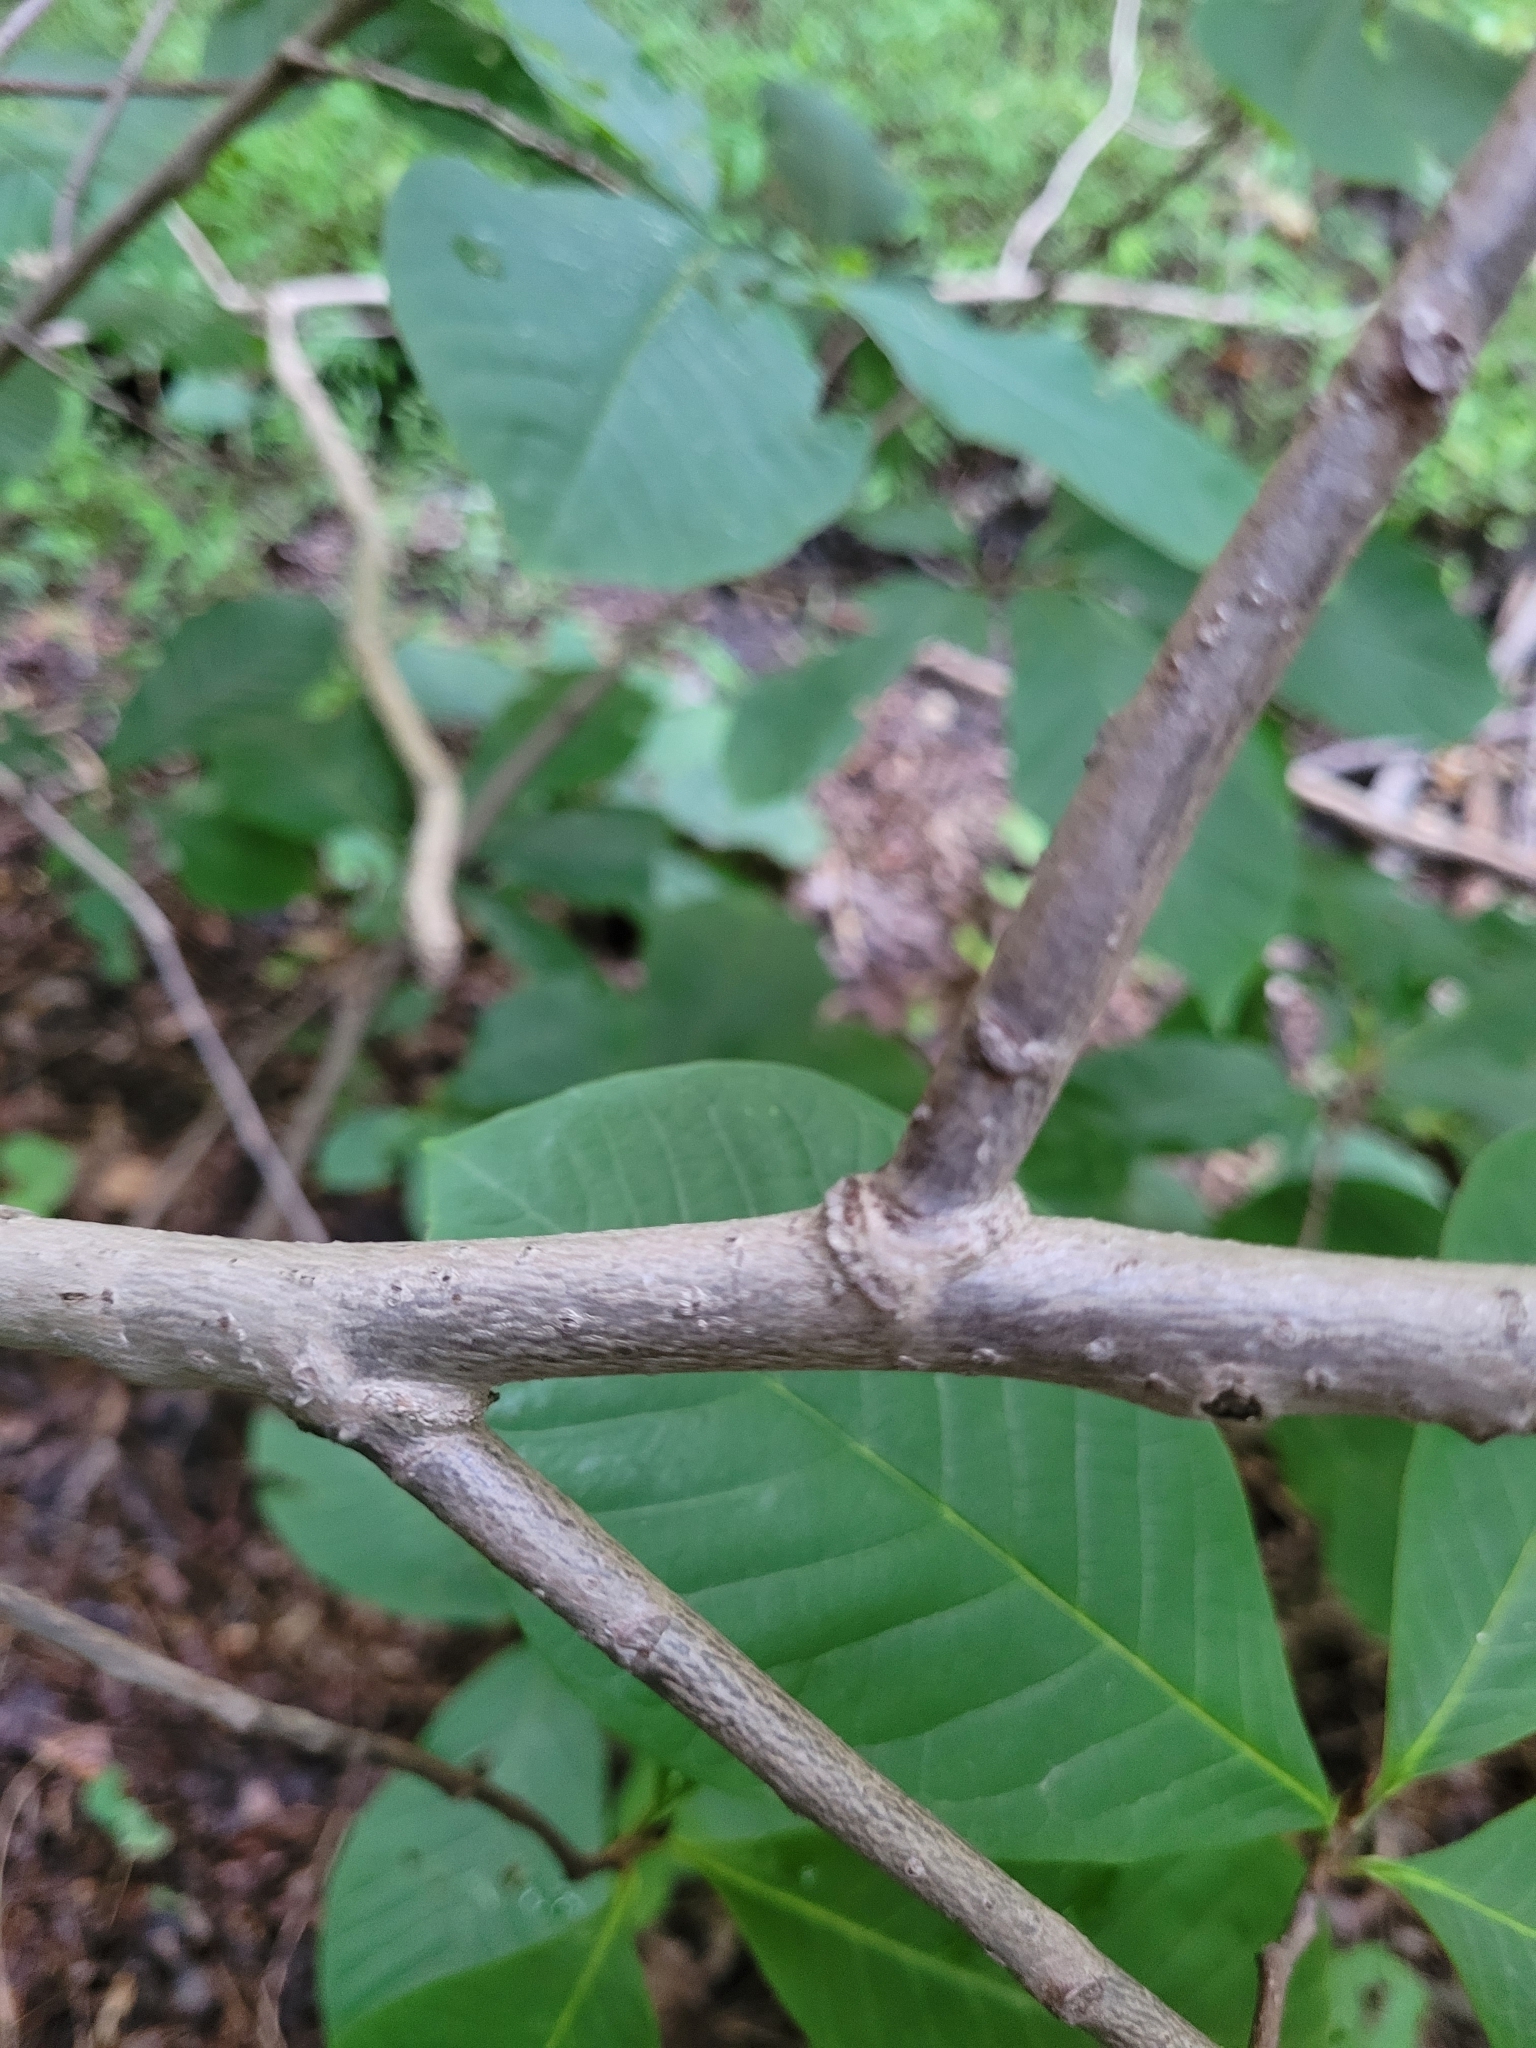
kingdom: Plantae
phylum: Tracheophyta
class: Magnoliopsida
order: Magnoliales
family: Annonaceae
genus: Asimina
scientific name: Asimina triloba
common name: Dog-banana
